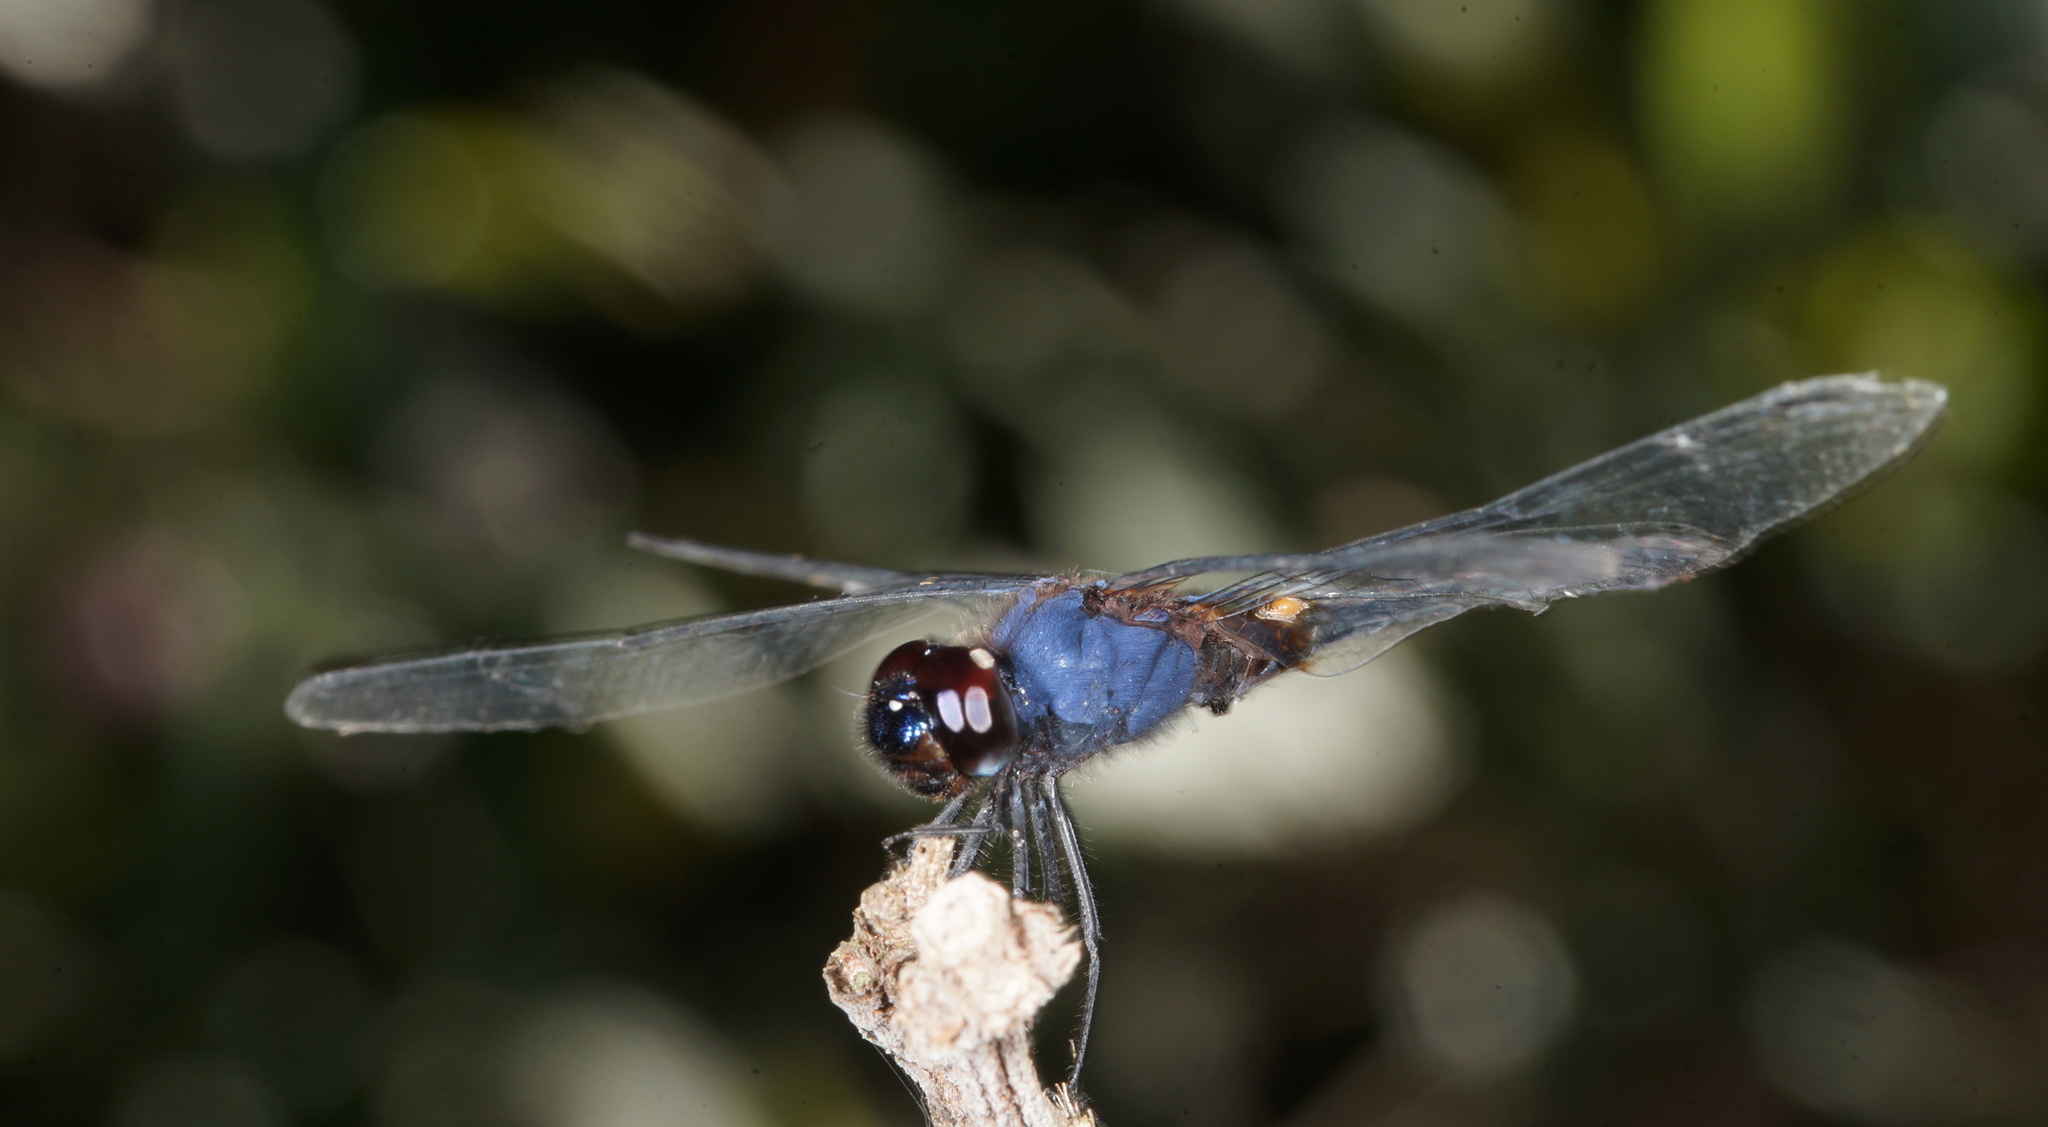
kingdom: Animalia
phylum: Arthropoda
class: Insecta
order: Odonata
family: Libellulidae
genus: Trithemis
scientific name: Trithemis festiva
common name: Indigo dropwing
